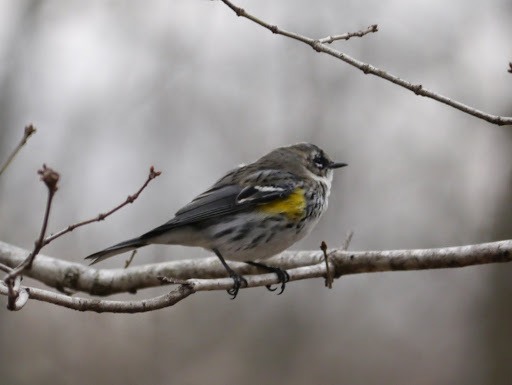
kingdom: Animalia
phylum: Chordata
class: Aves
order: Passeriformes
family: Parulidae
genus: Setophaga
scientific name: Setophaga coronata
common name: Myrtle warbler
